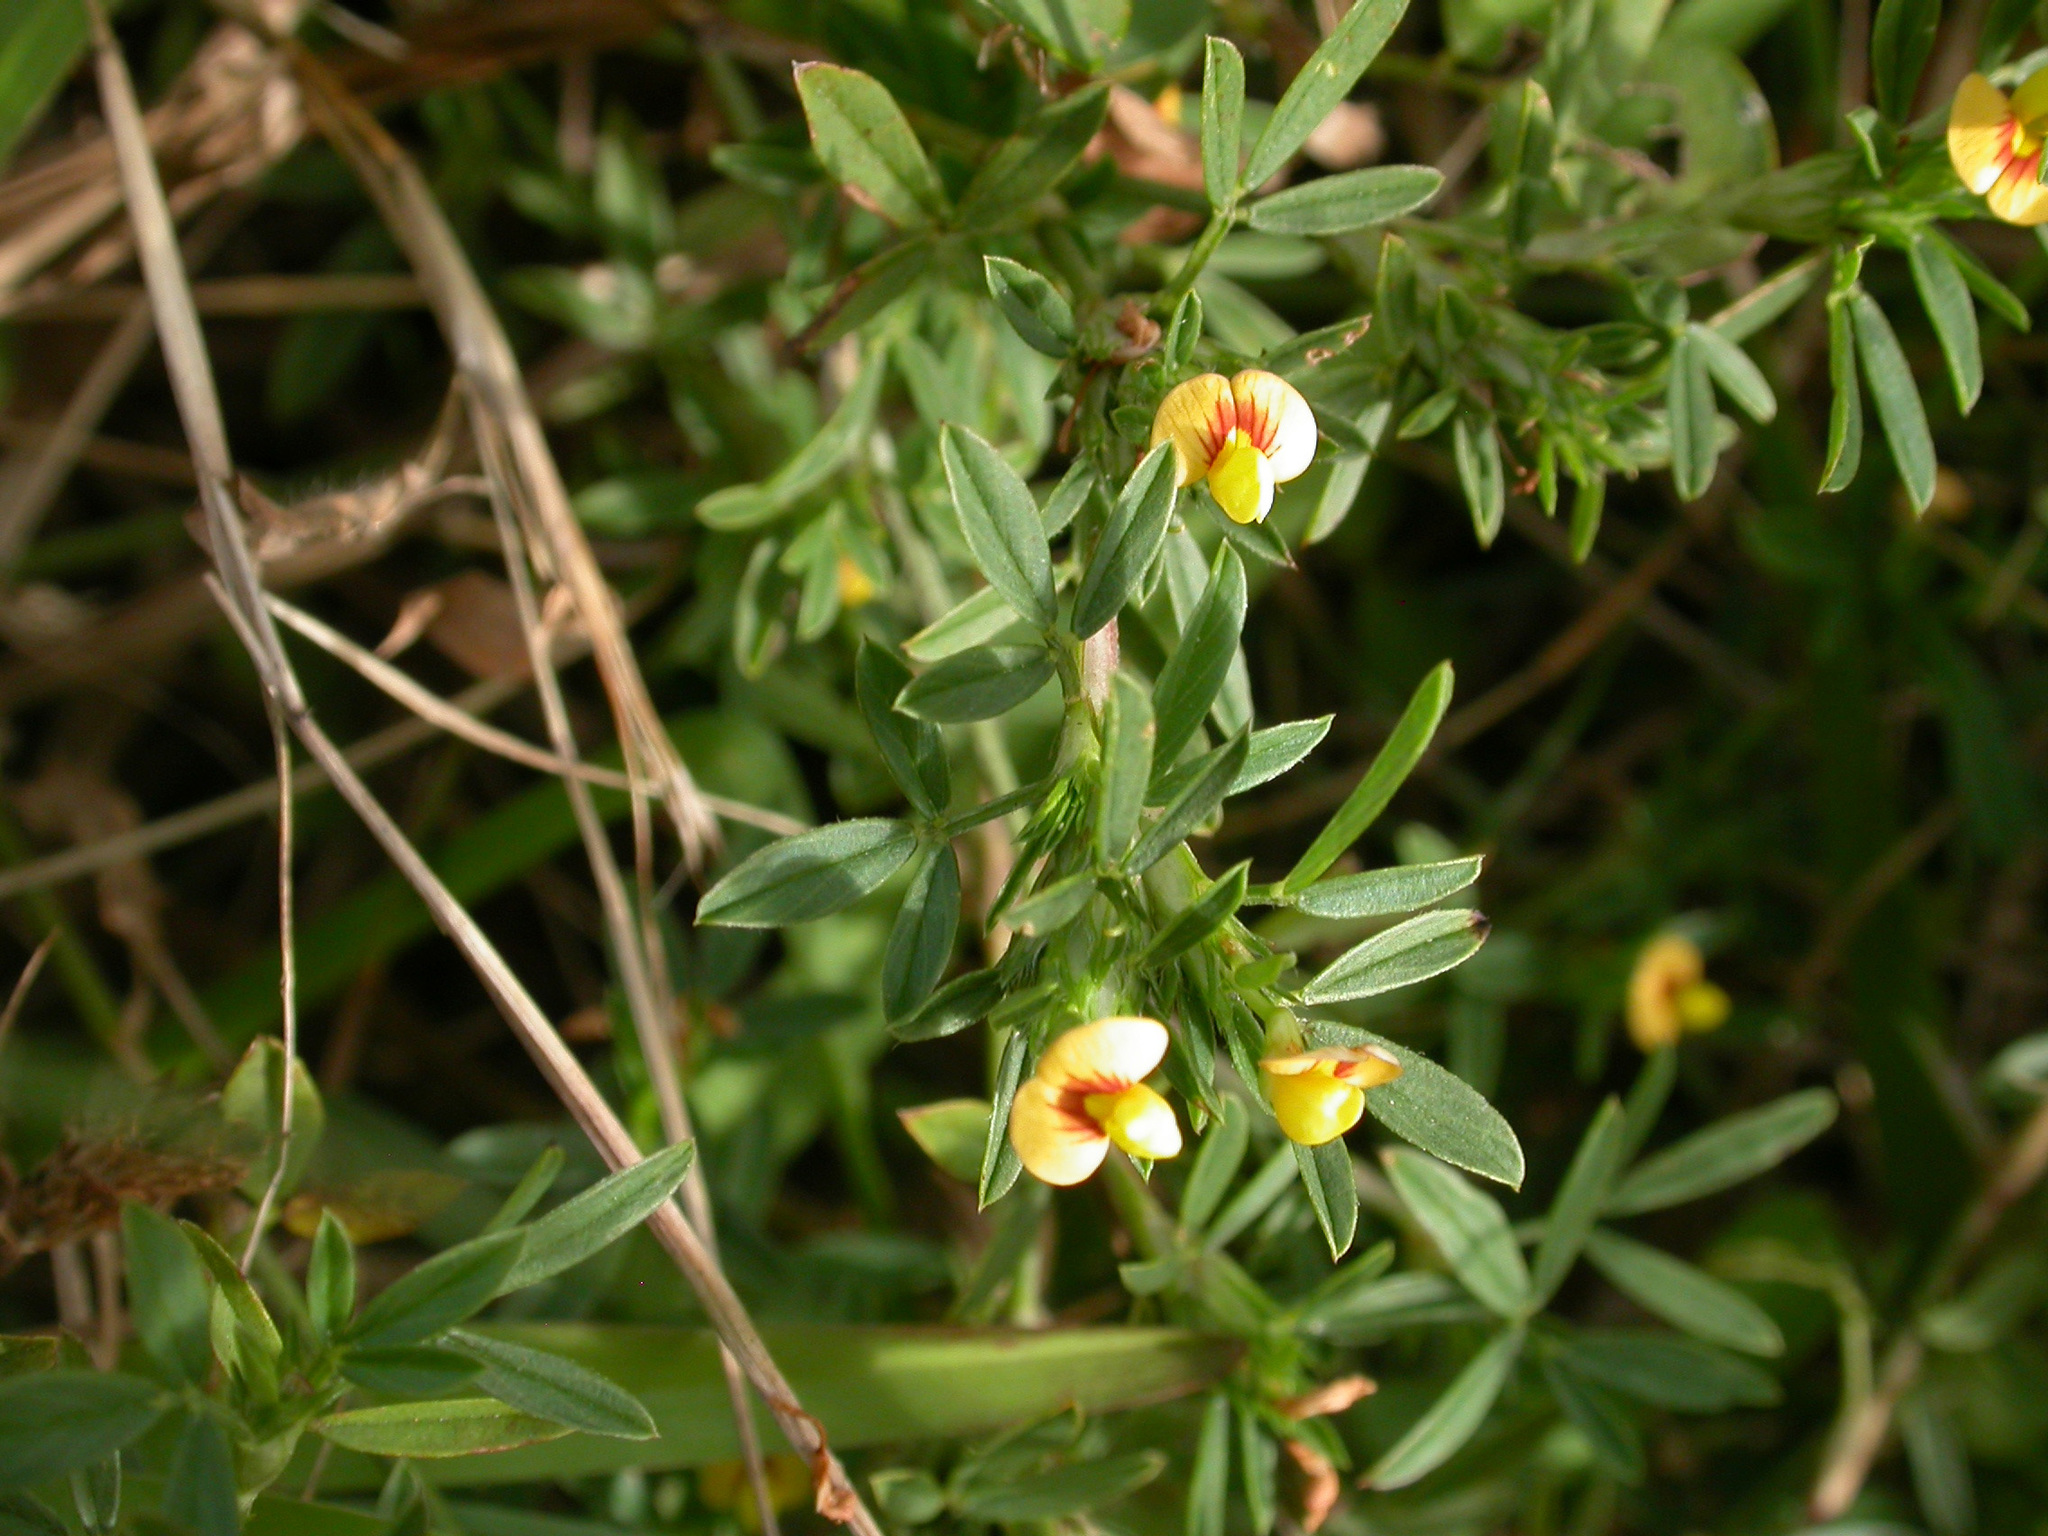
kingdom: Plantae
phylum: Tracheophyta
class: Magnoliopsida
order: Fabales
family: Fabaceae
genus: Stylosanthes
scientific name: Stylosanthes hamata
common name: Cheesytoes
